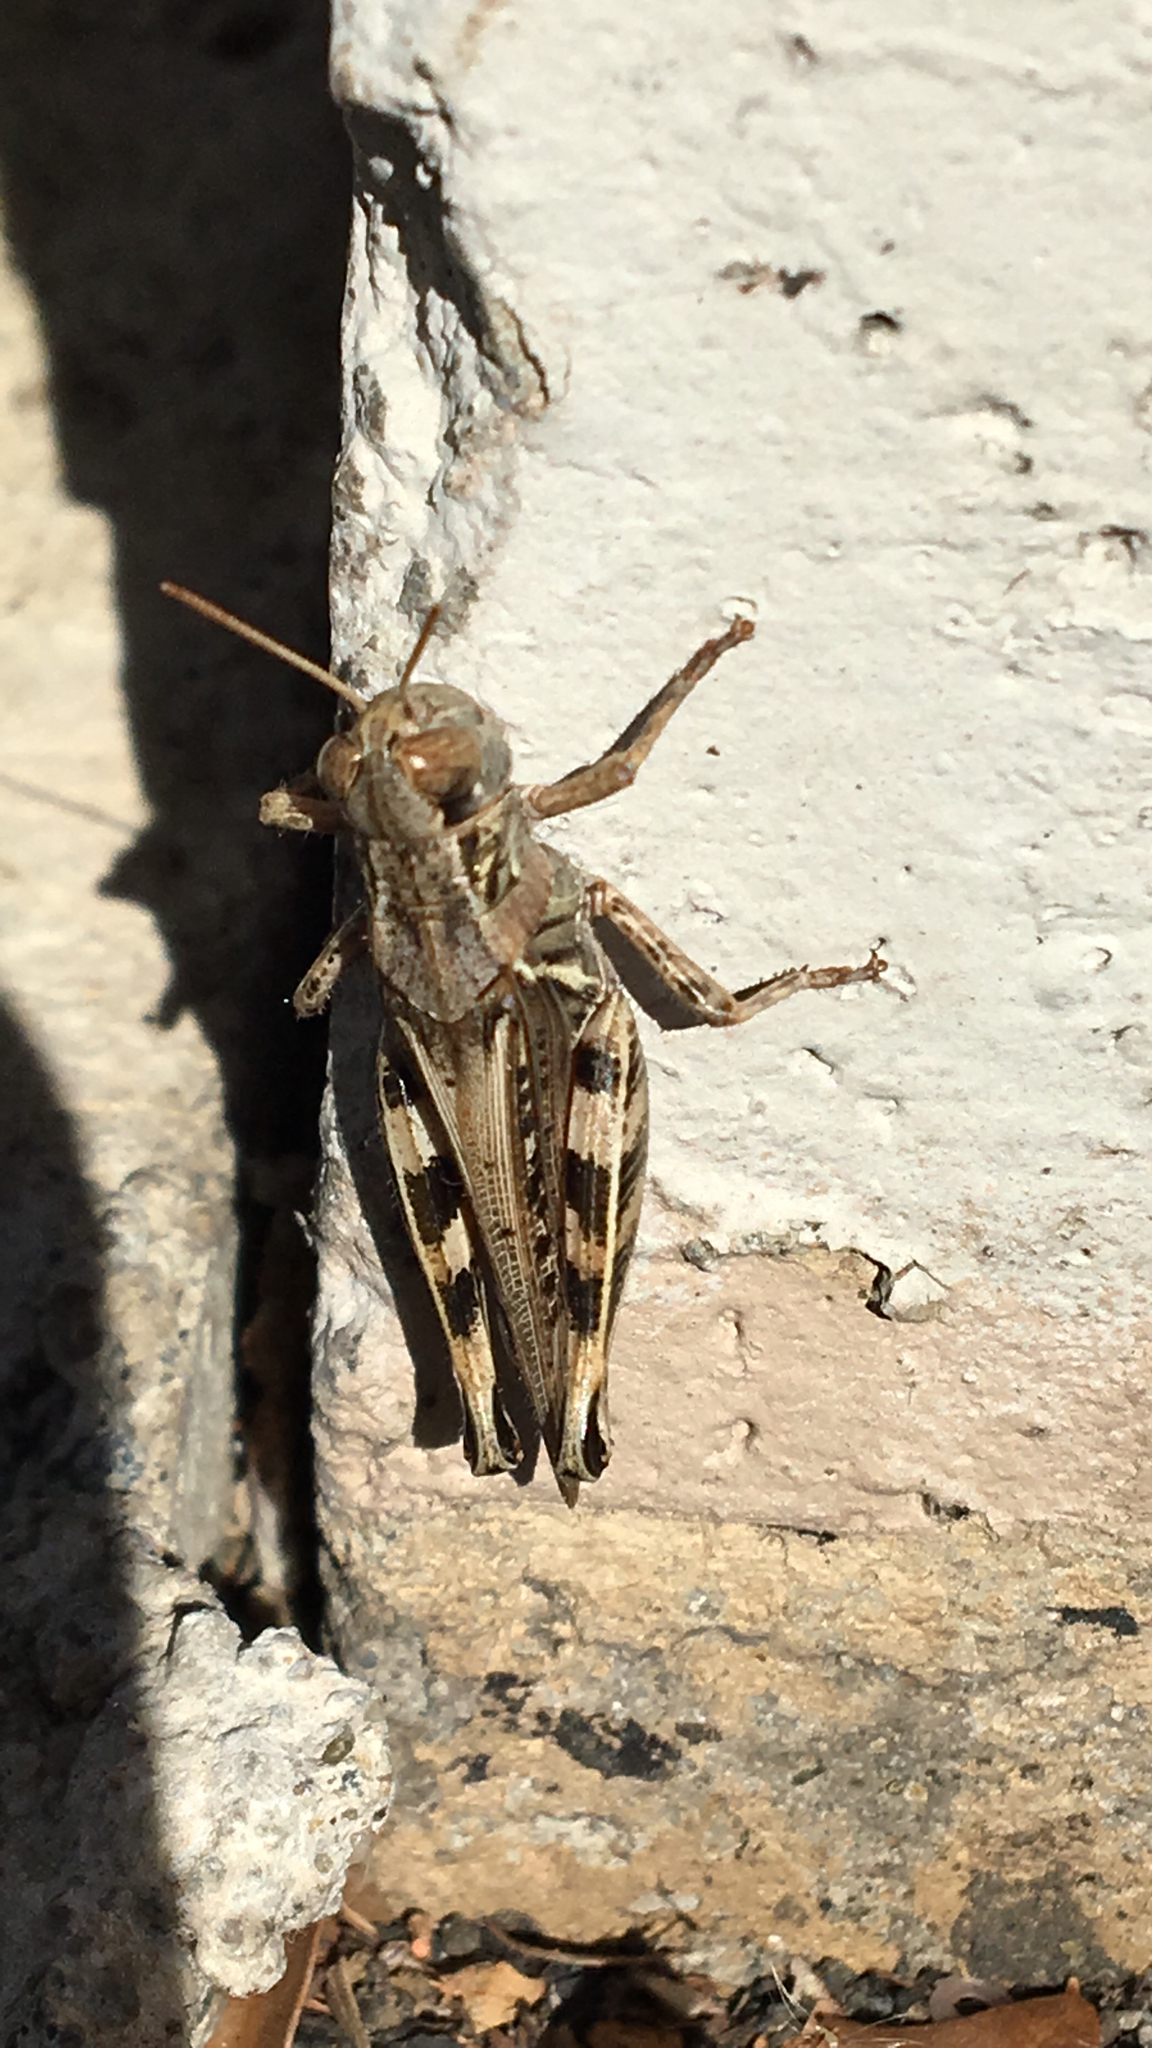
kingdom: Animalia
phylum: Arthropoda
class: Insecta
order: Orthoptera
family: Acrididae
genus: Melanoplus
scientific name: Melanoplus devastator
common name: Devastating grasshopper
